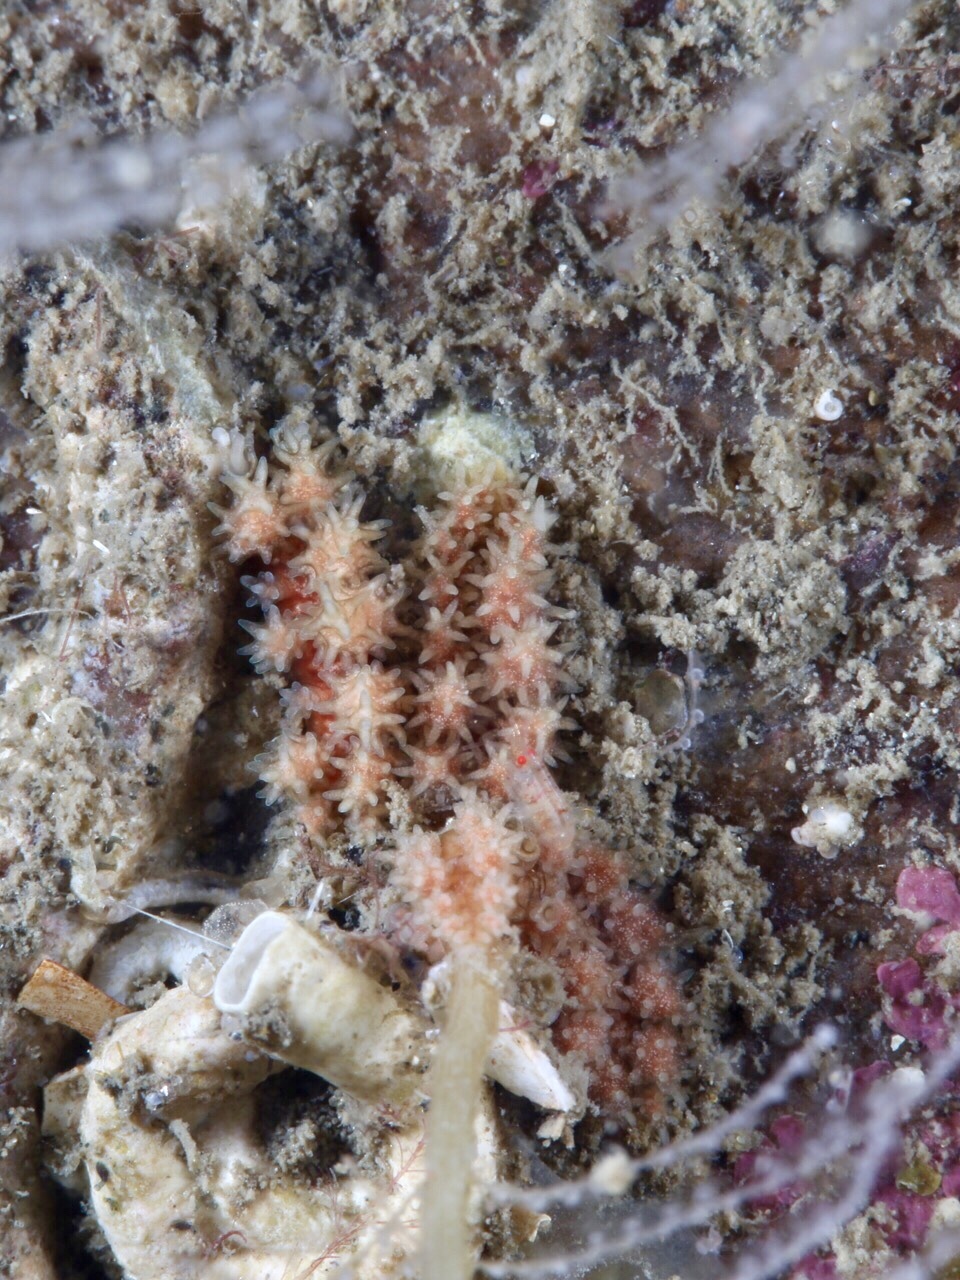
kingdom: Animalia
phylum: Mollusca
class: Gastropoda
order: Nudibranchia
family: Dotidae
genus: Doto
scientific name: Doto hystrix
